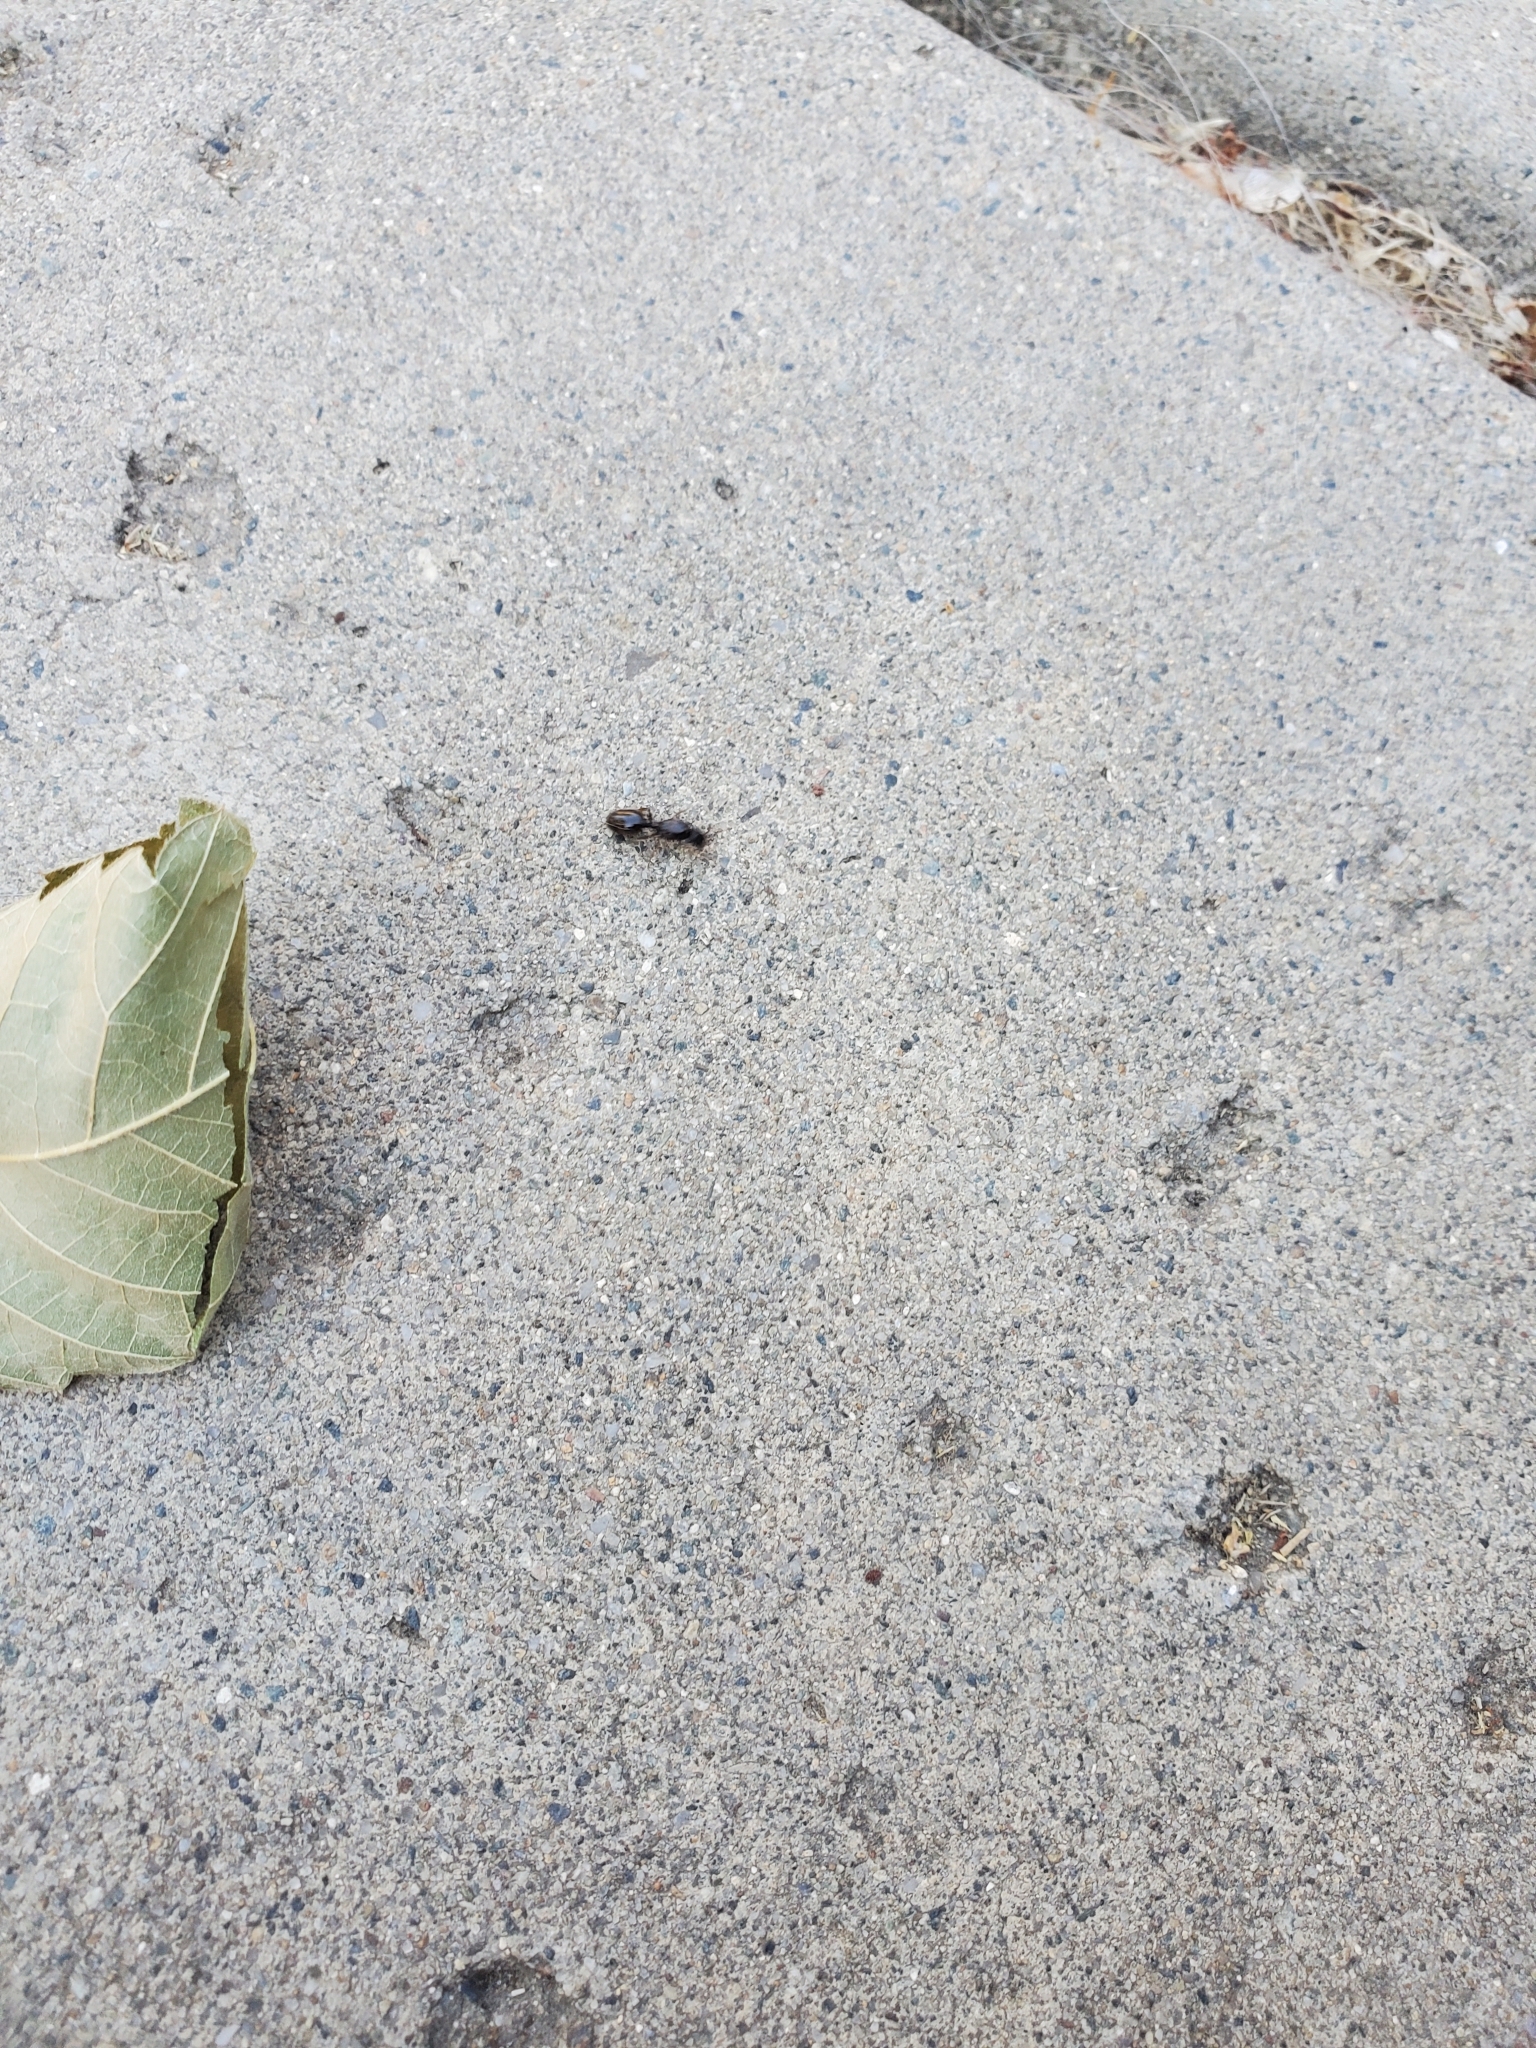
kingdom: Animalia
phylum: Arthropoda
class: Insecta
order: Hymenoptera
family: Formicidae
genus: Tetramorium
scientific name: Tetramorium immigrans
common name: Pavement ant
